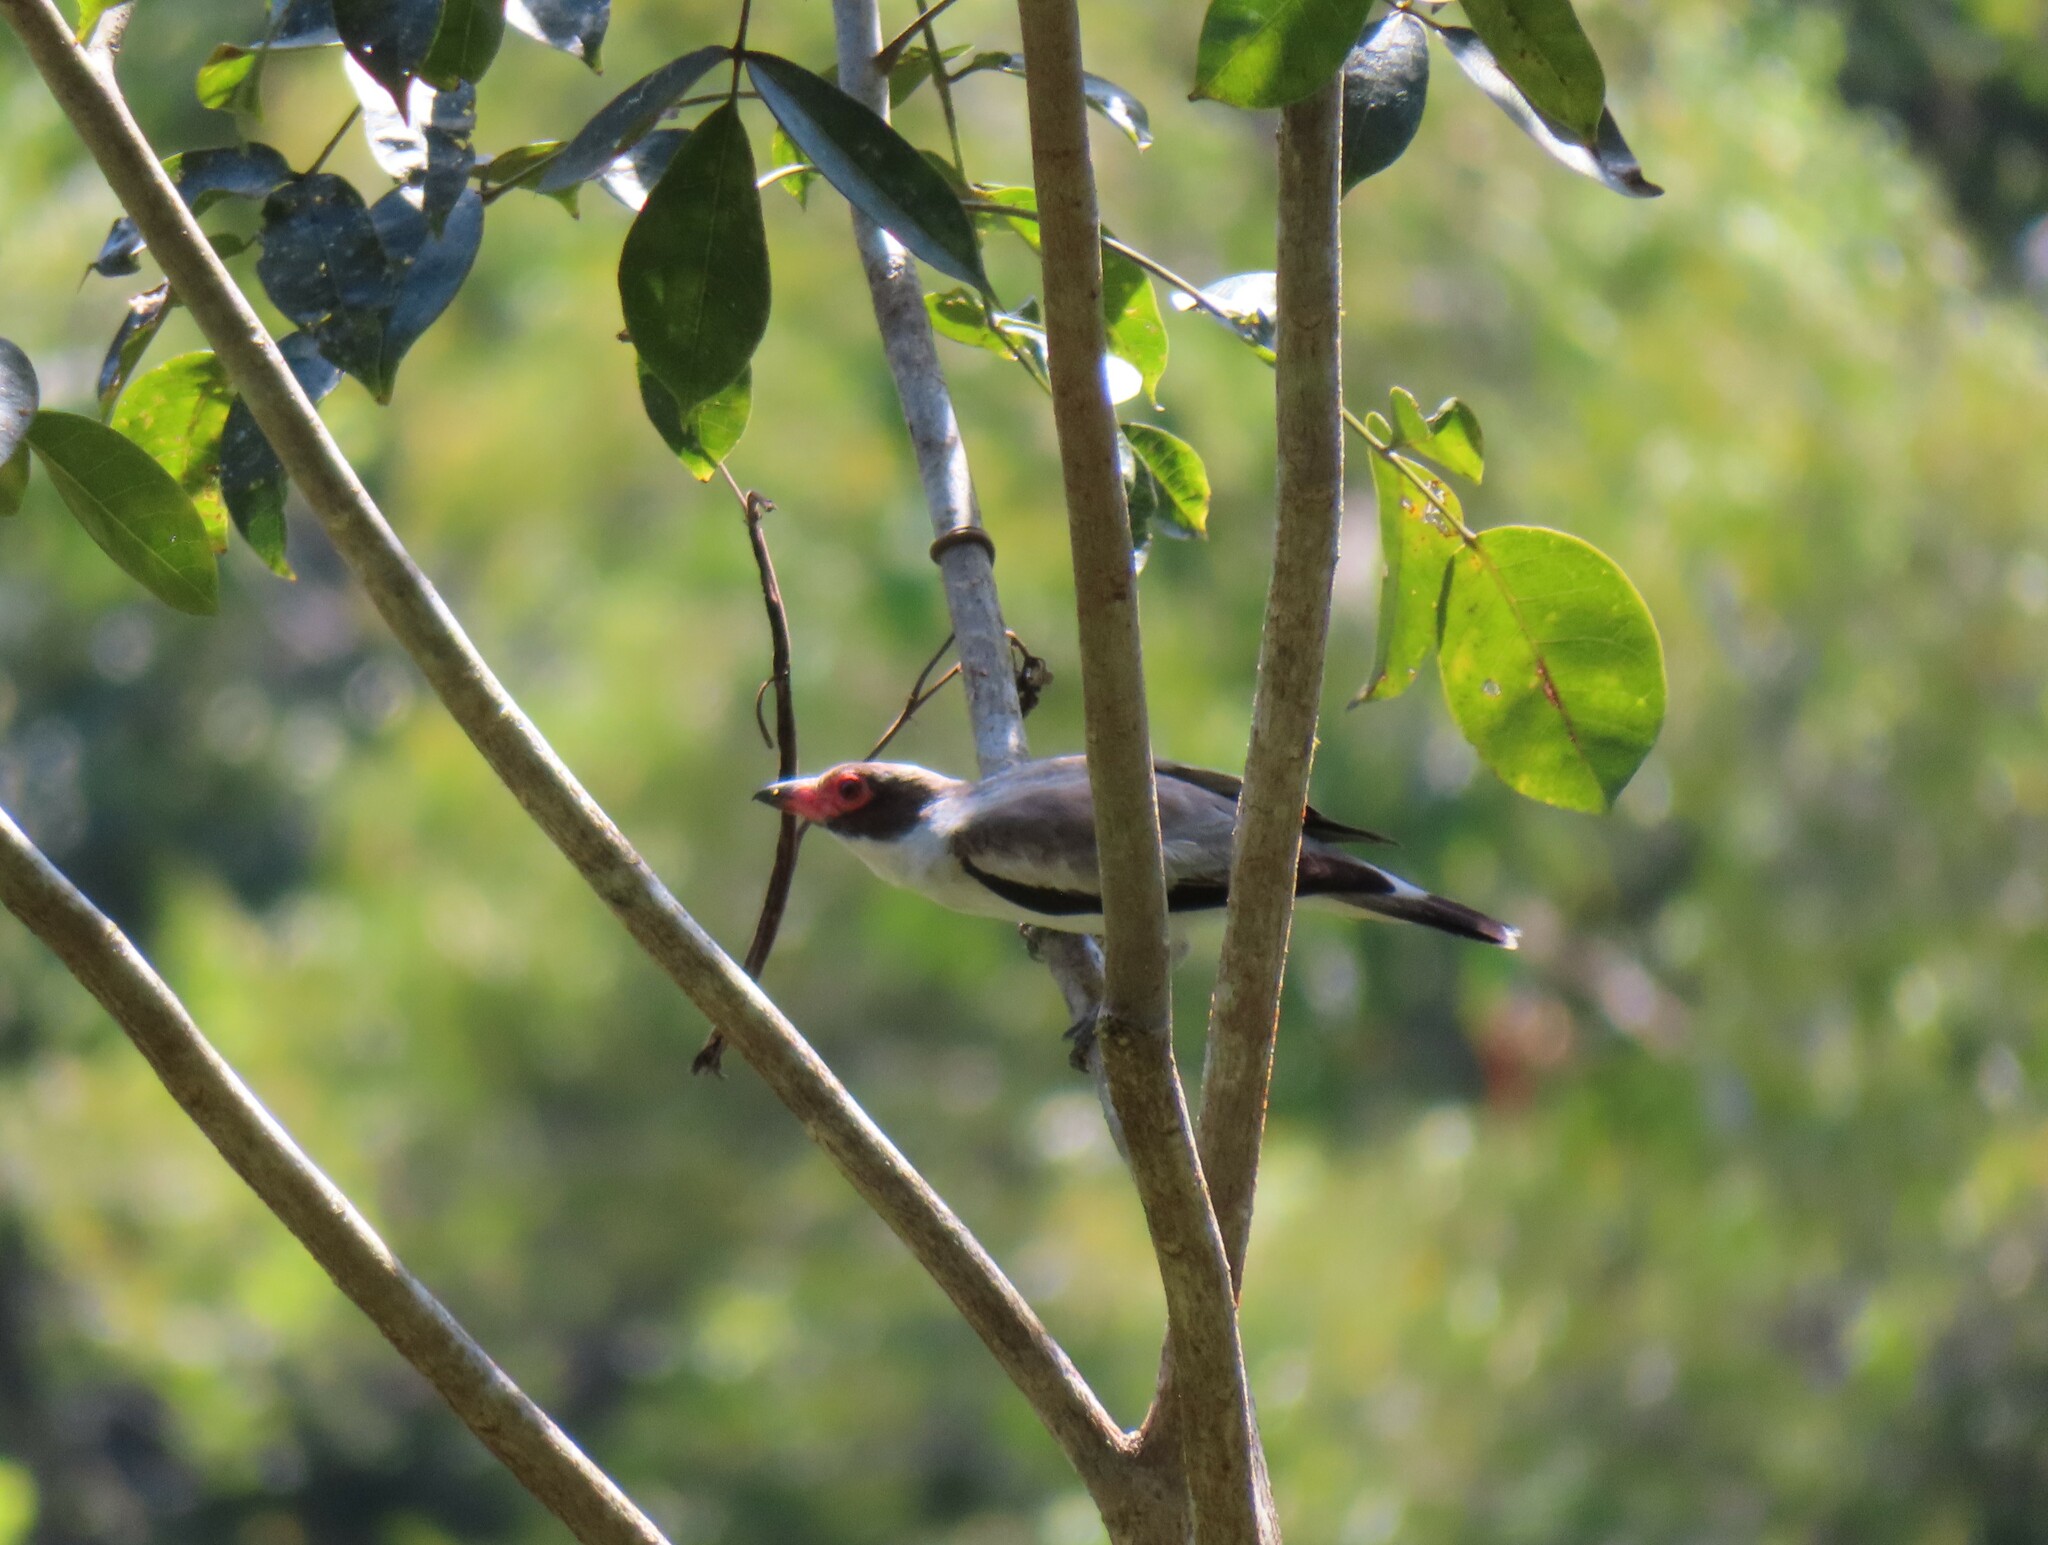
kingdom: Animalia
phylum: Chordata
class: Aves
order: Passeriformes
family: Cotingidae
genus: Tityra
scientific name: Tityra semifasciata
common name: Masked tityra
